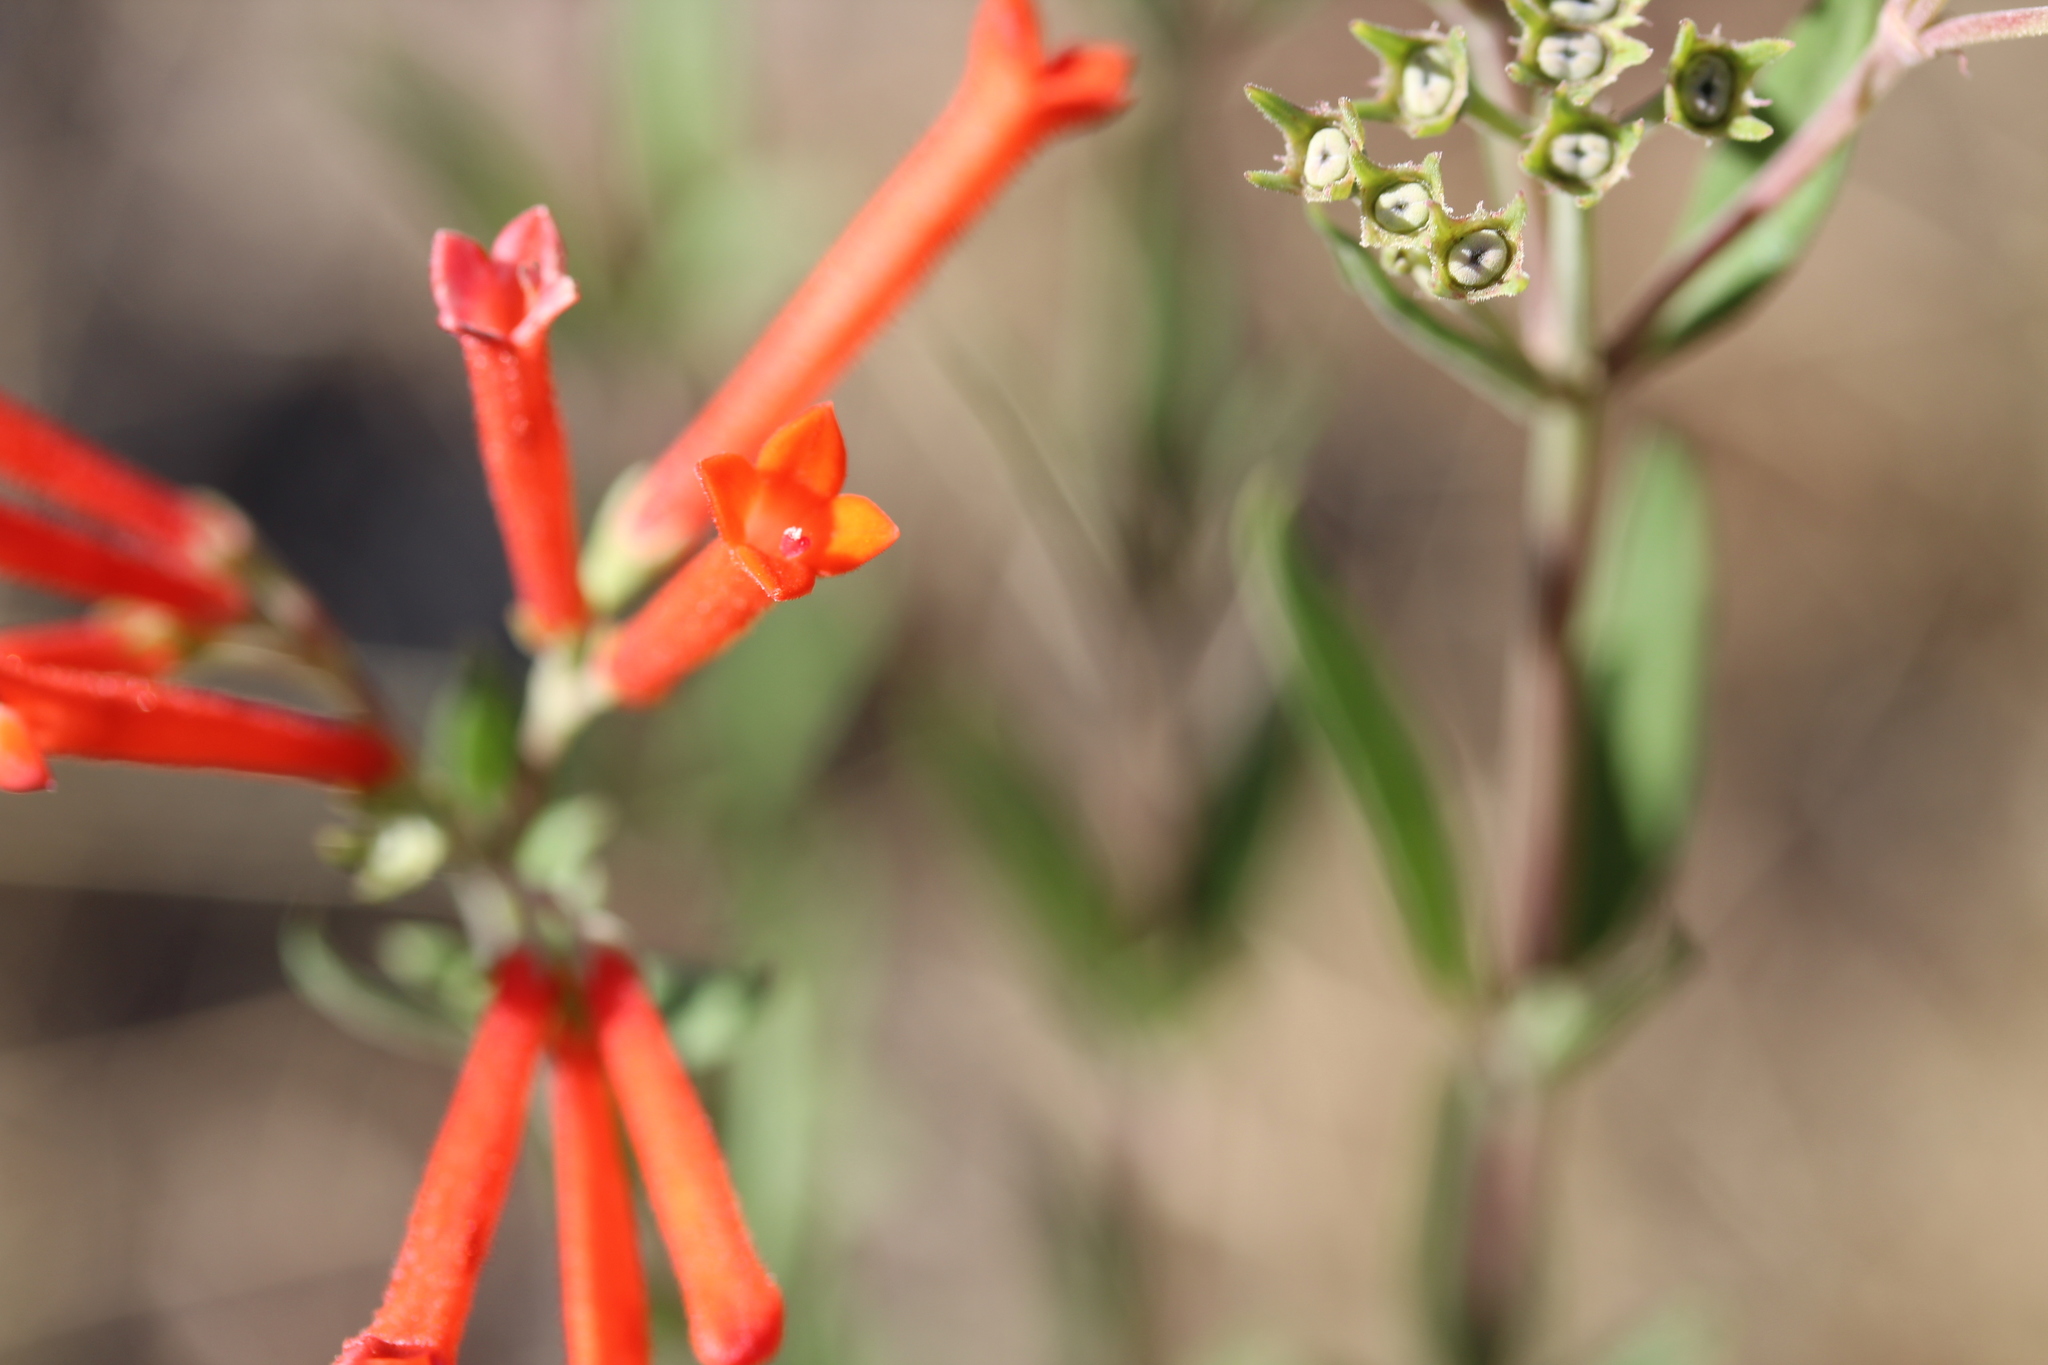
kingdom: Plantae
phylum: Tracheophyta
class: Magnoliopsida
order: Gentianales
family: Rubiaceae
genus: Bouvardia
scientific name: Bouvardia ternifolia
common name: Scarlet bouvardia
